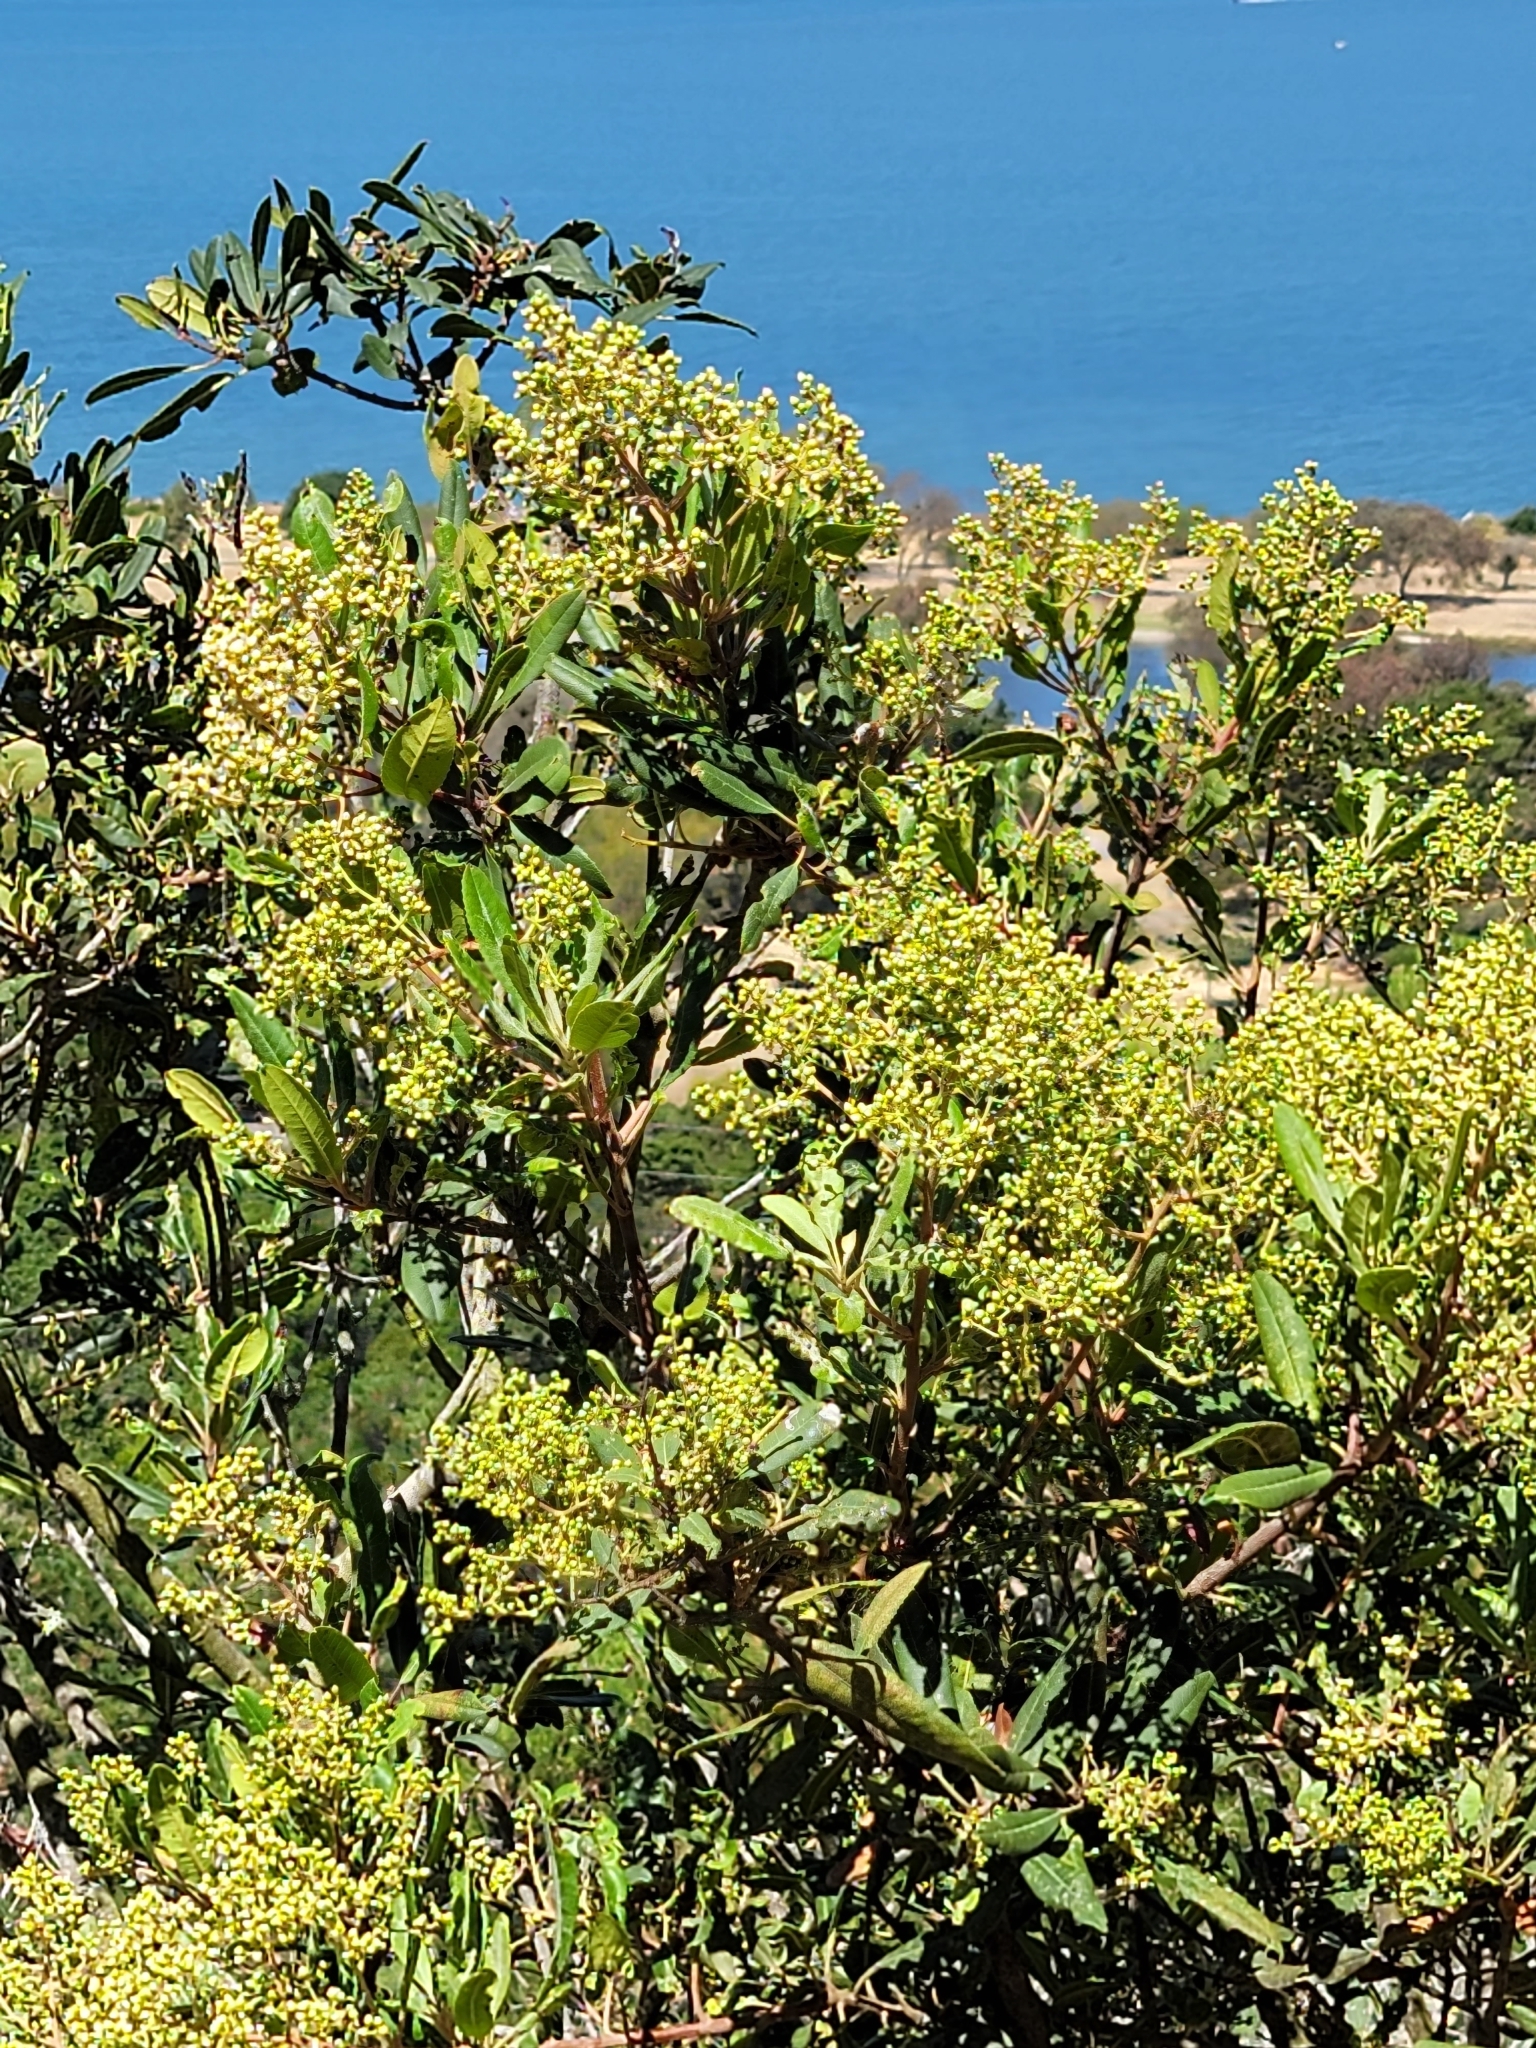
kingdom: Plantae
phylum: Tracheophyta
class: Magnoliopsida
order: Rosales
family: Rosaceae
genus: Heteromeles
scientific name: Heteromeles arbutifolia
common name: California-holly
